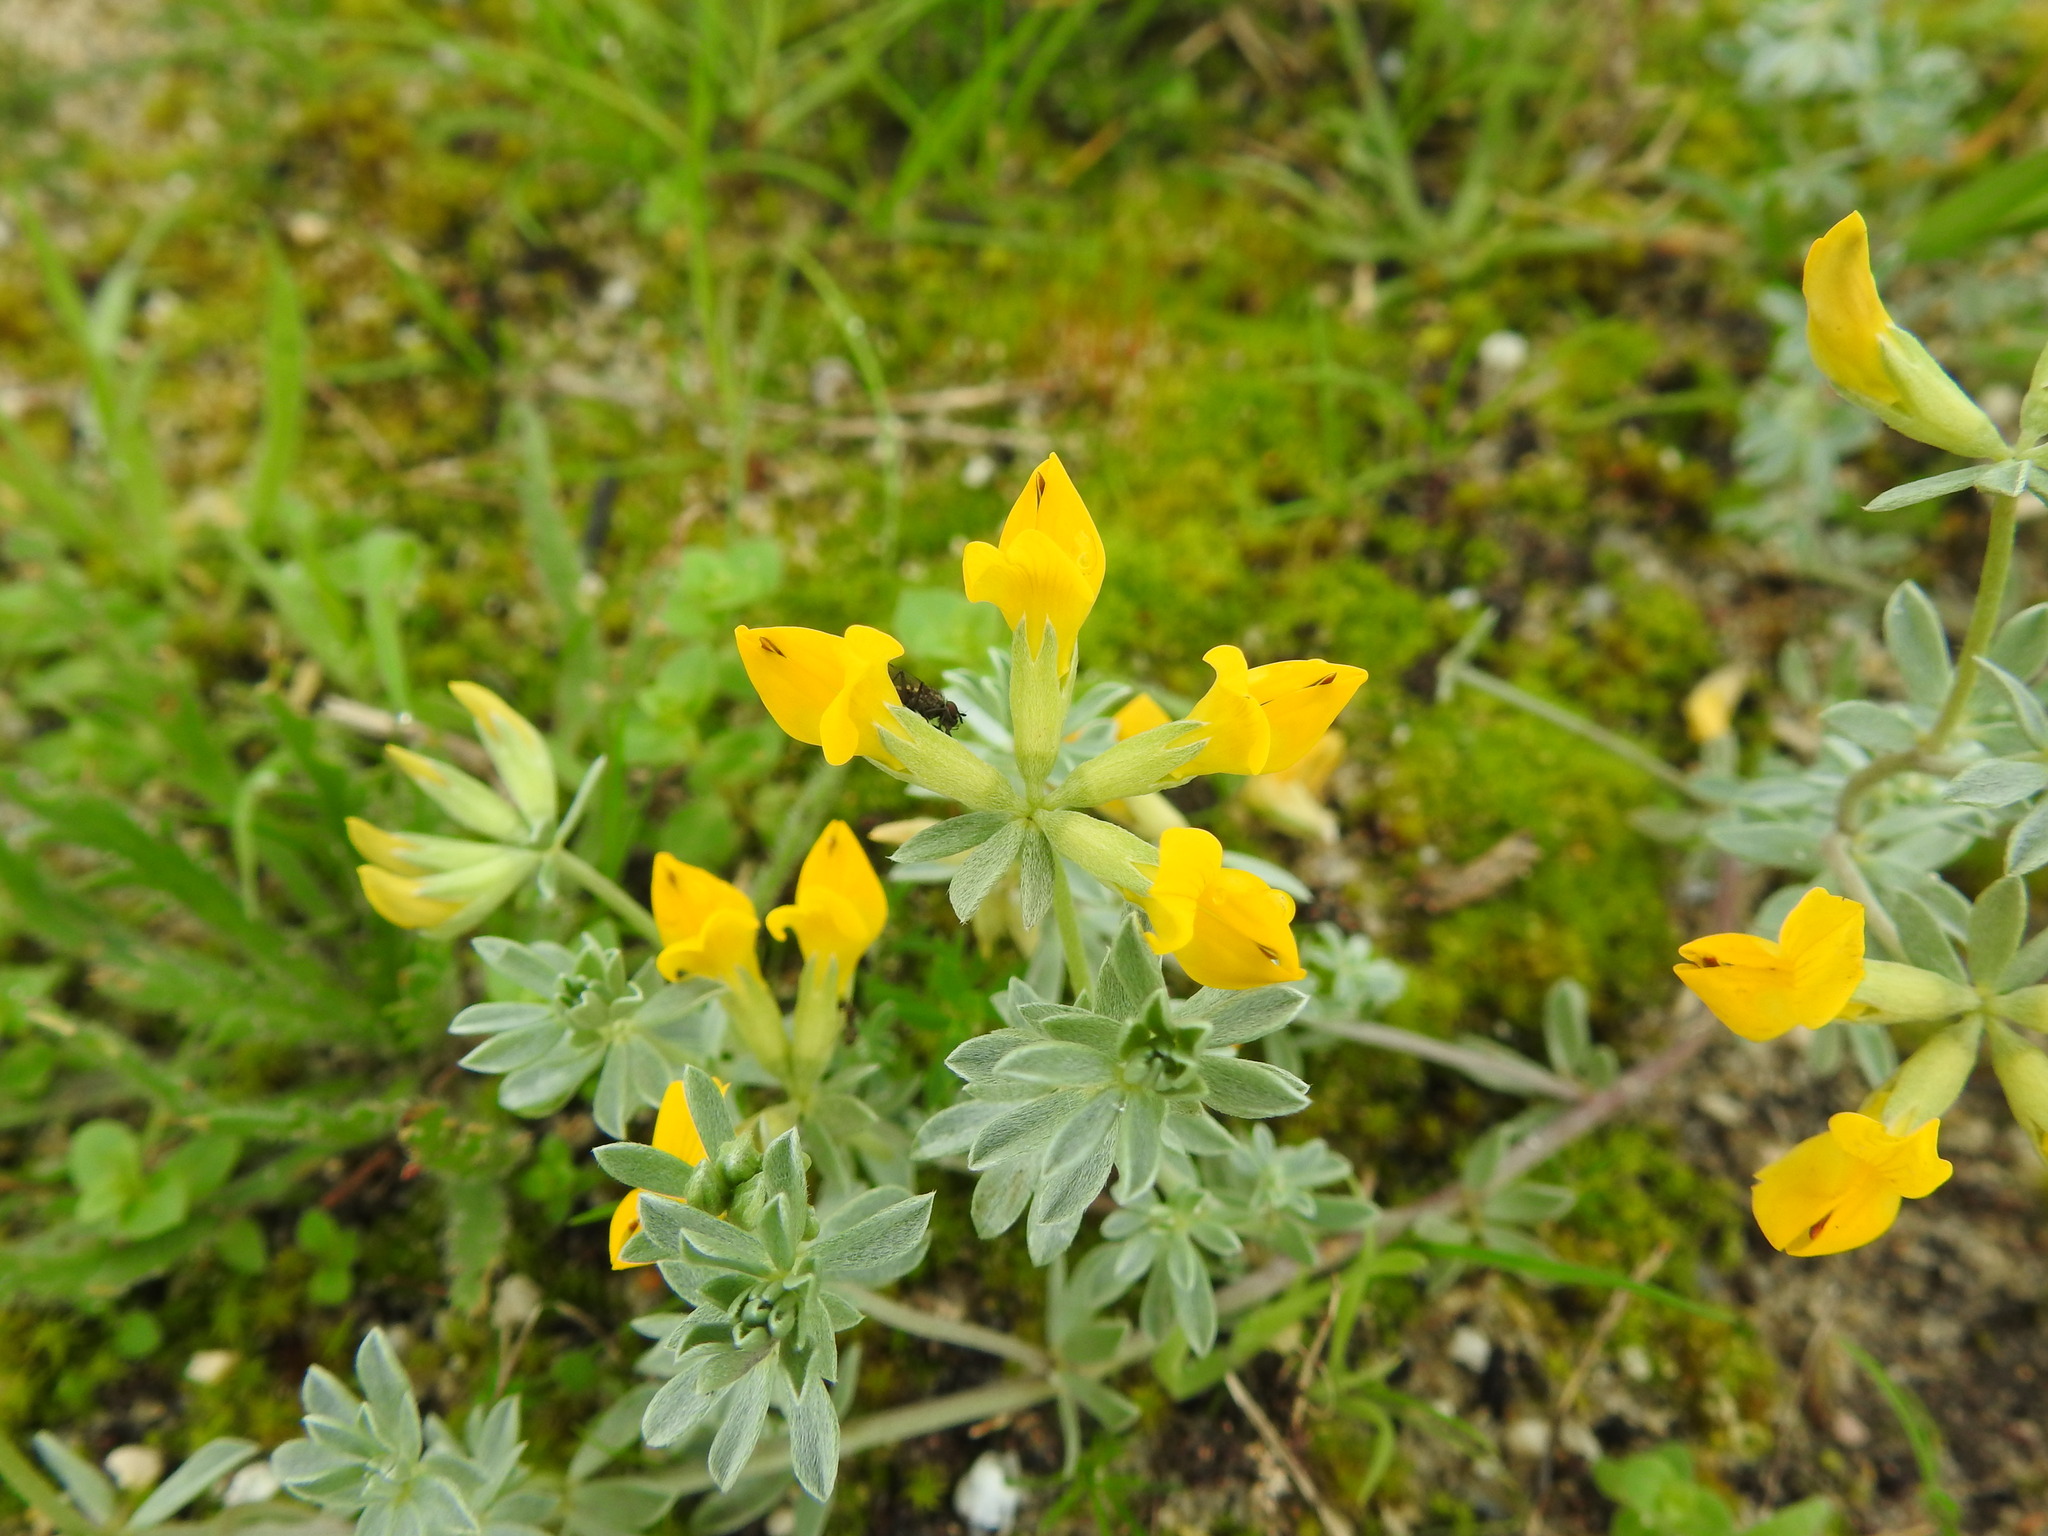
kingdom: Plantae
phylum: Tracheophyta
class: Magnoliopsida
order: Fabales
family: Fabaceae
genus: Lotus
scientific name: Lotus creticus
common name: Cretan bird's-foot trefoil
